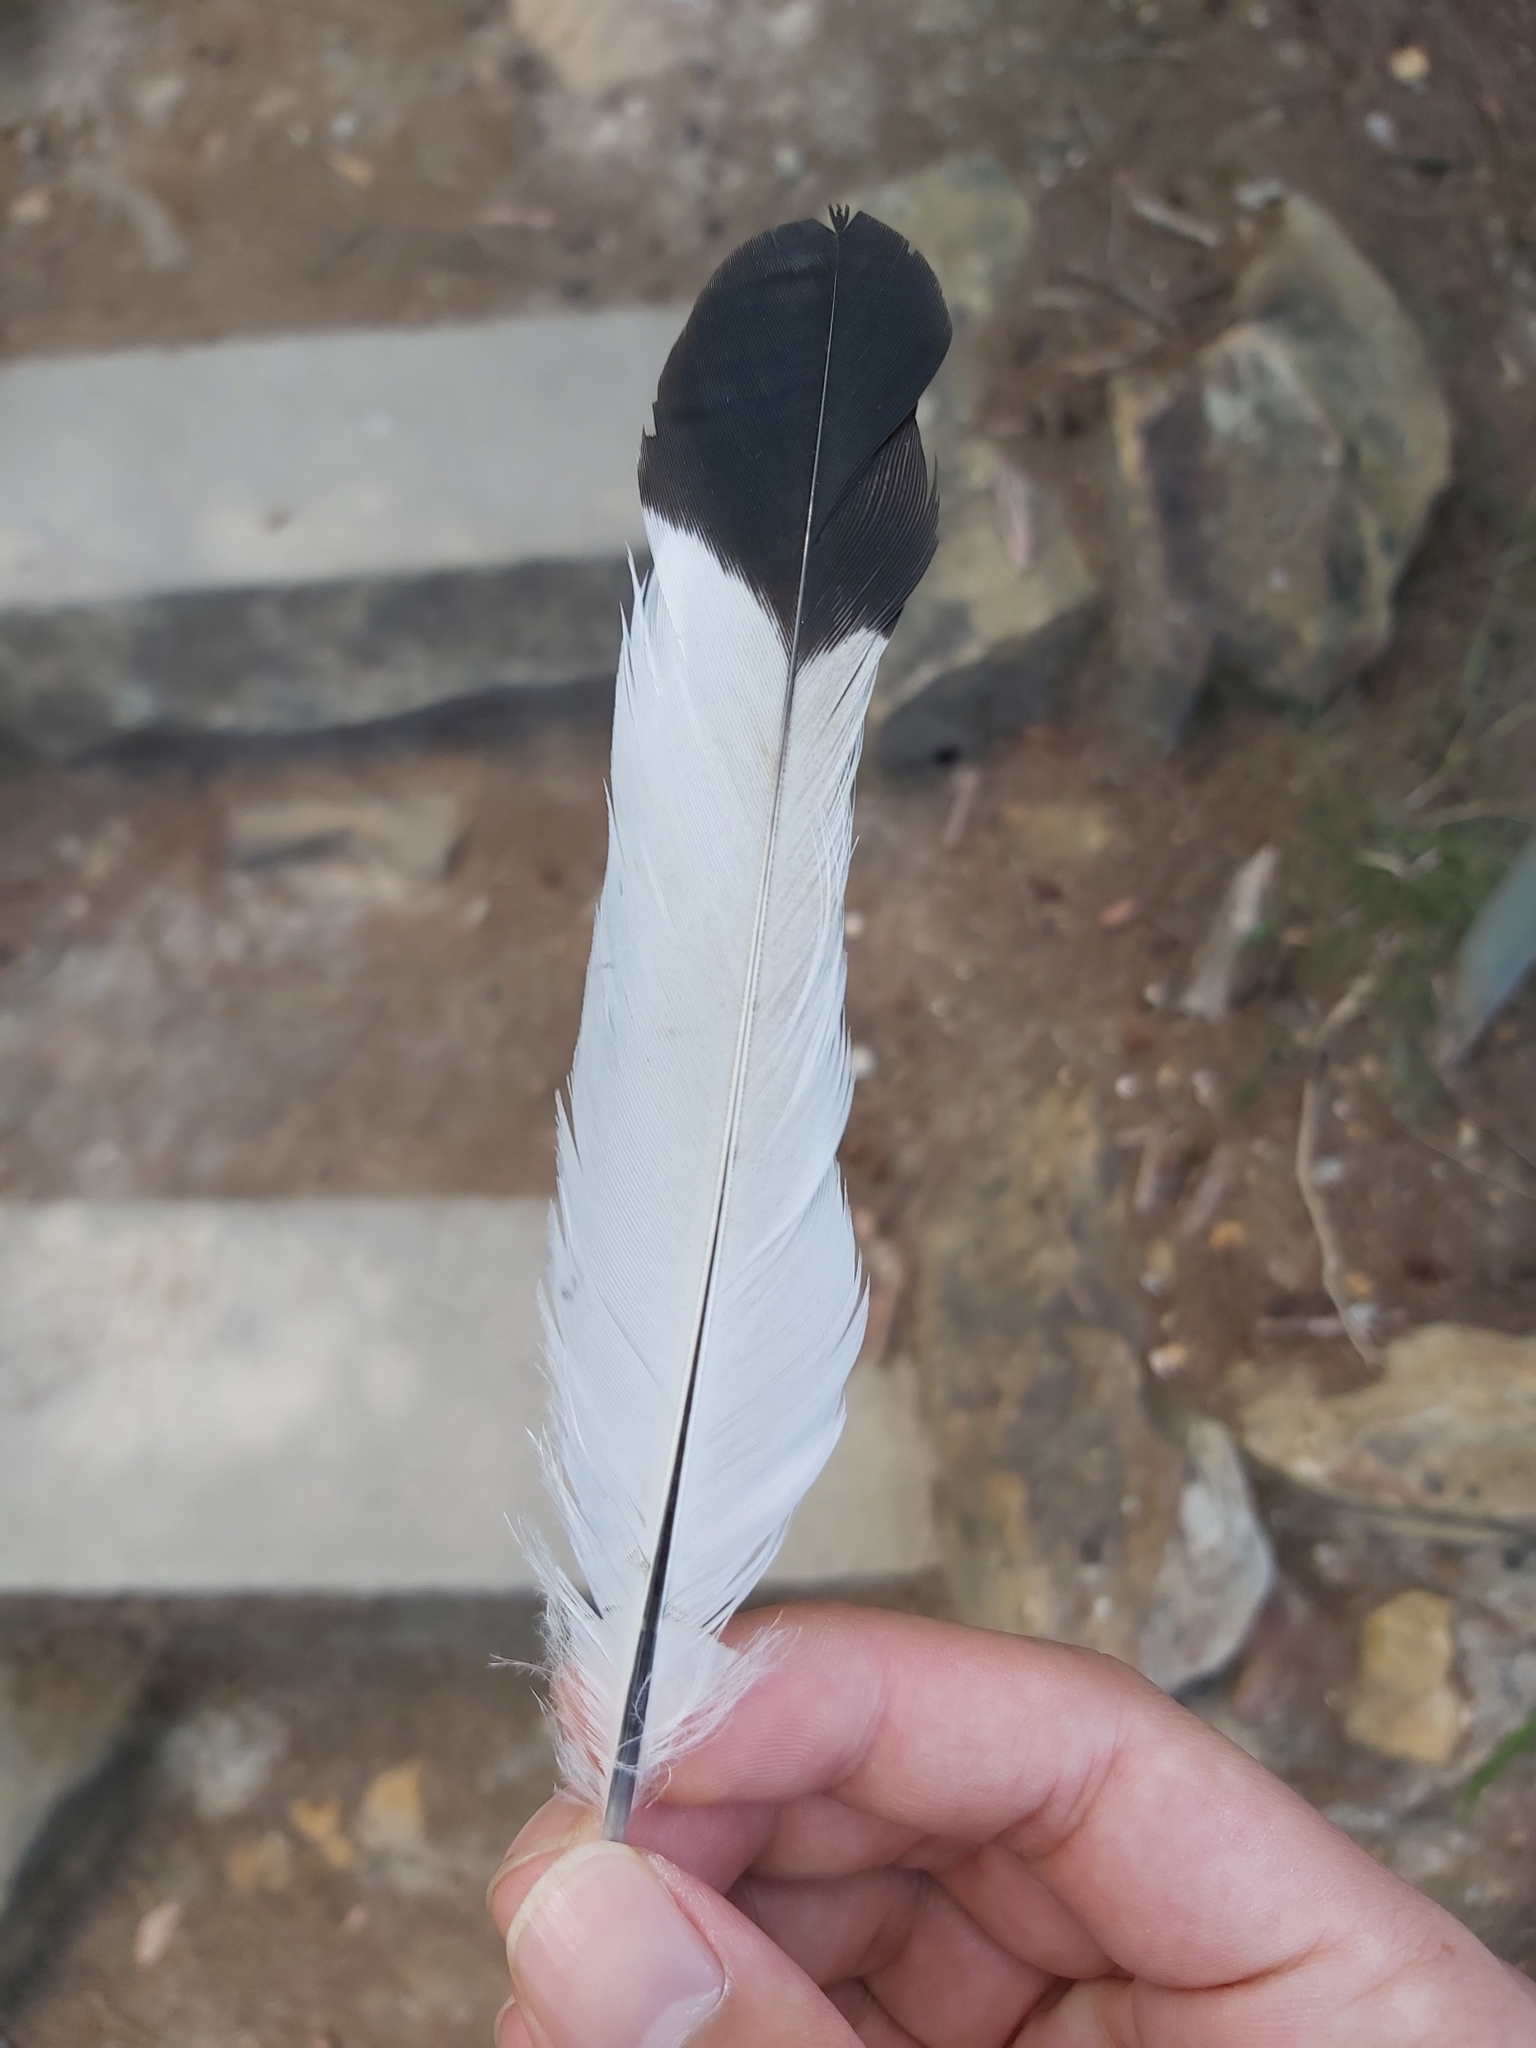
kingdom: Animalia
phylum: Chordata
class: Aves
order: Passeriformes
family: Cracticidae
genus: Gymnorhina
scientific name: Gymnorhina tibicen
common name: Australian magpie
